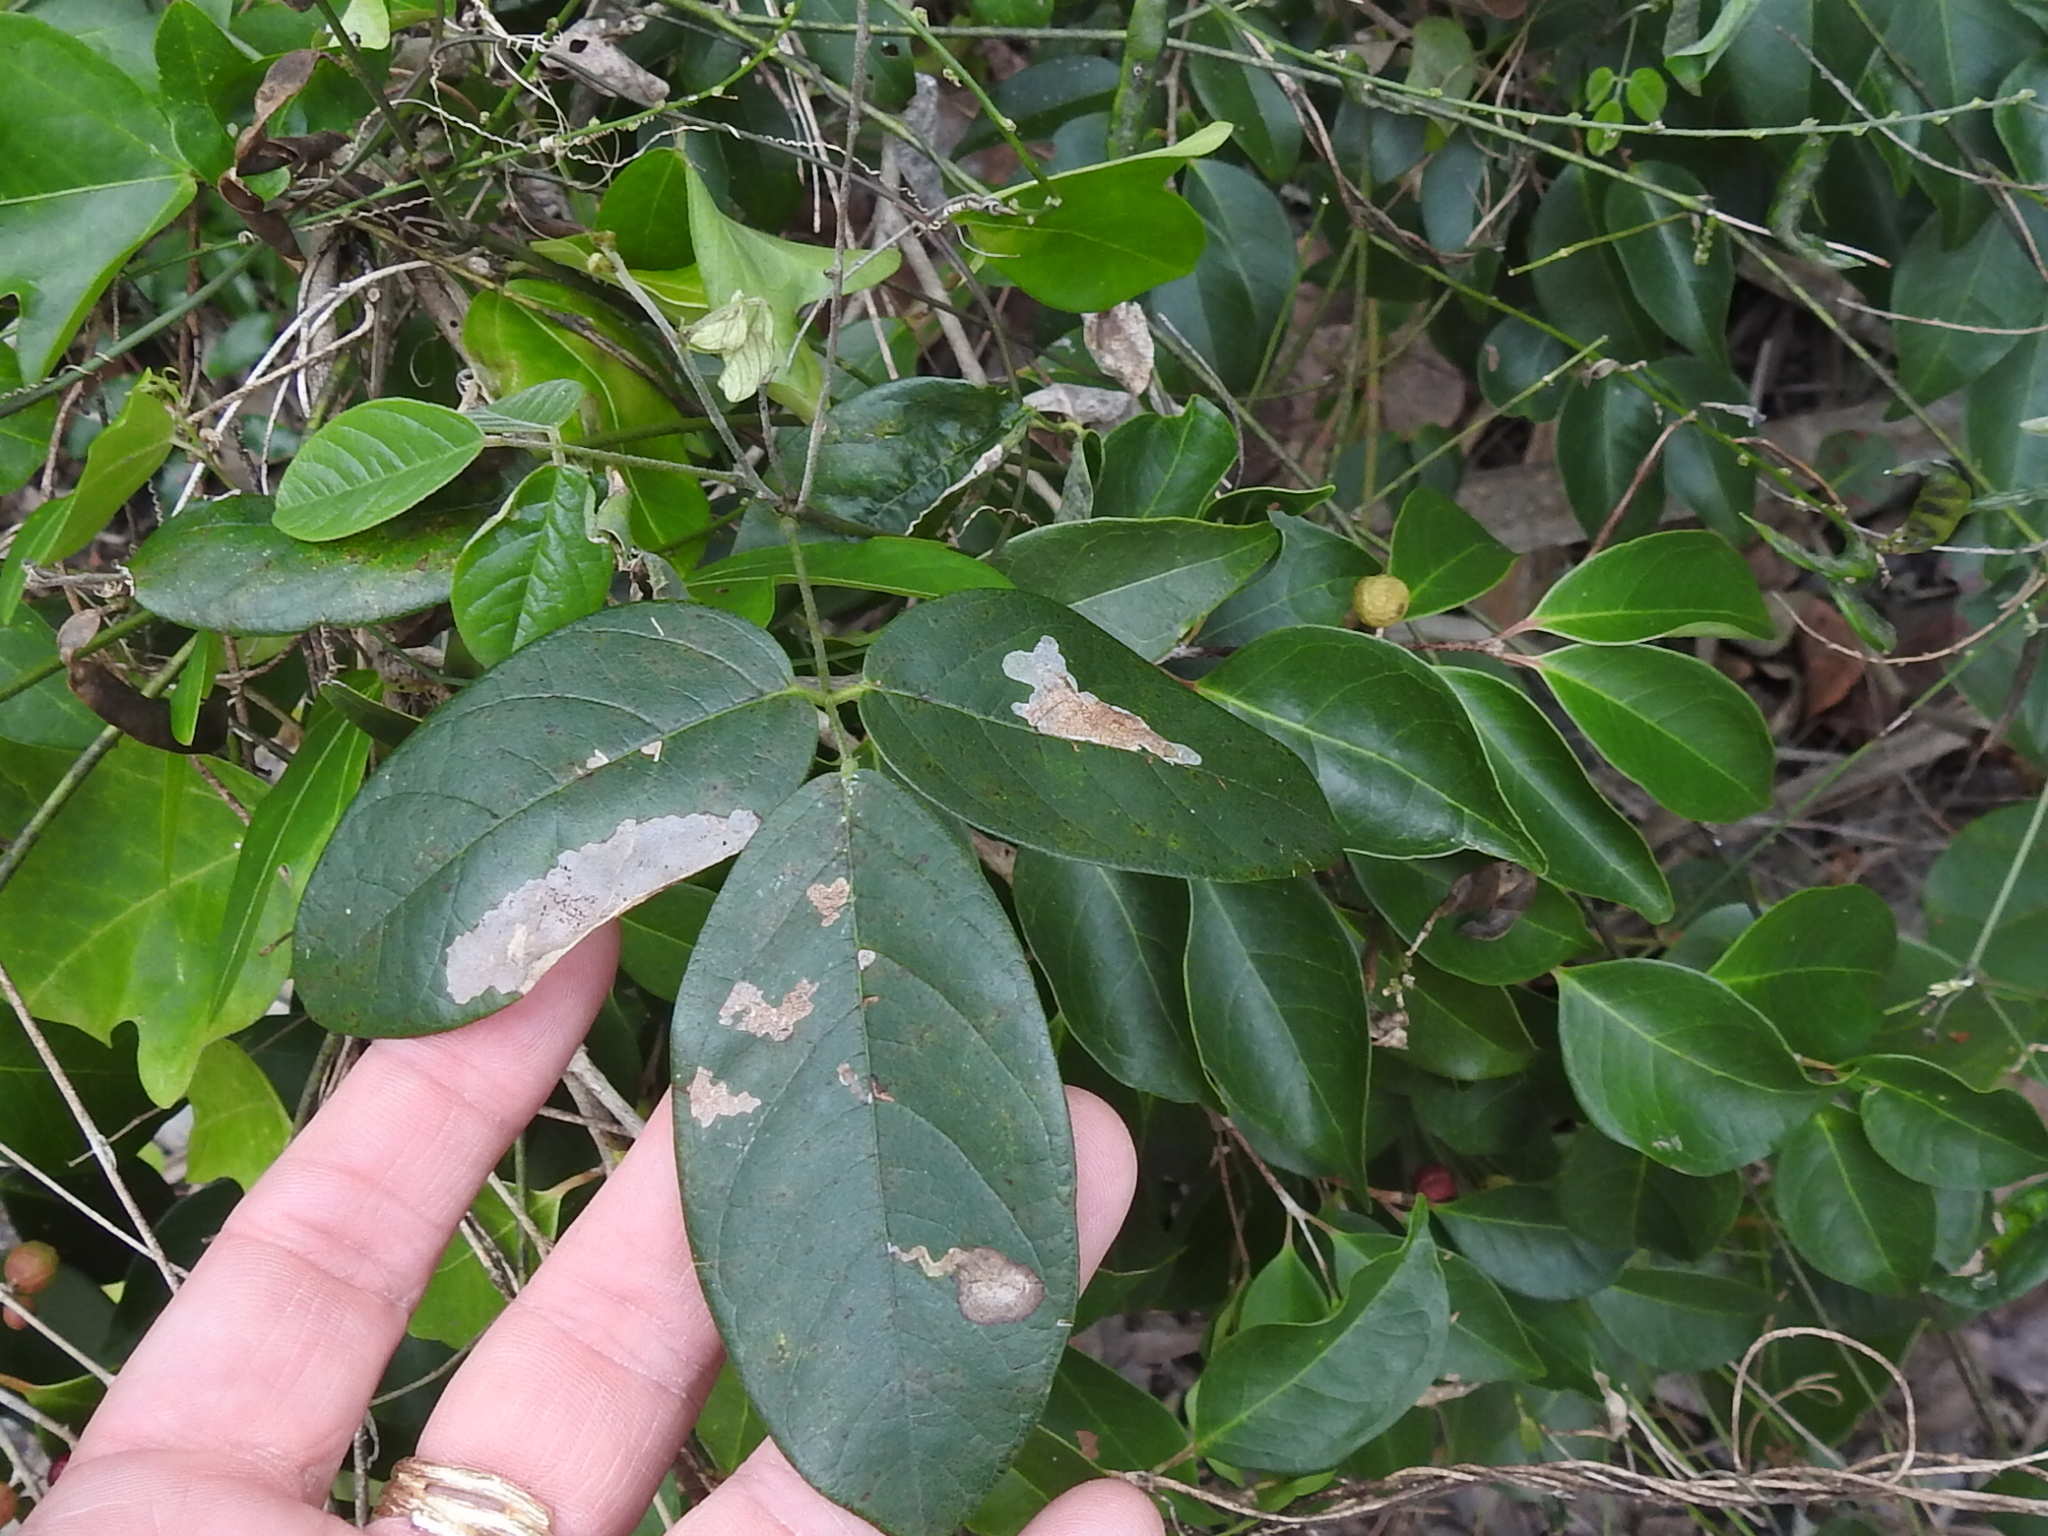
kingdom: Plantae
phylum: Tracheophyta
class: Magnoliopsida
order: Fabales
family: Fabaceae
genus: Galactia
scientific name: Galactia striata
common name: Florida hammock milkpea
